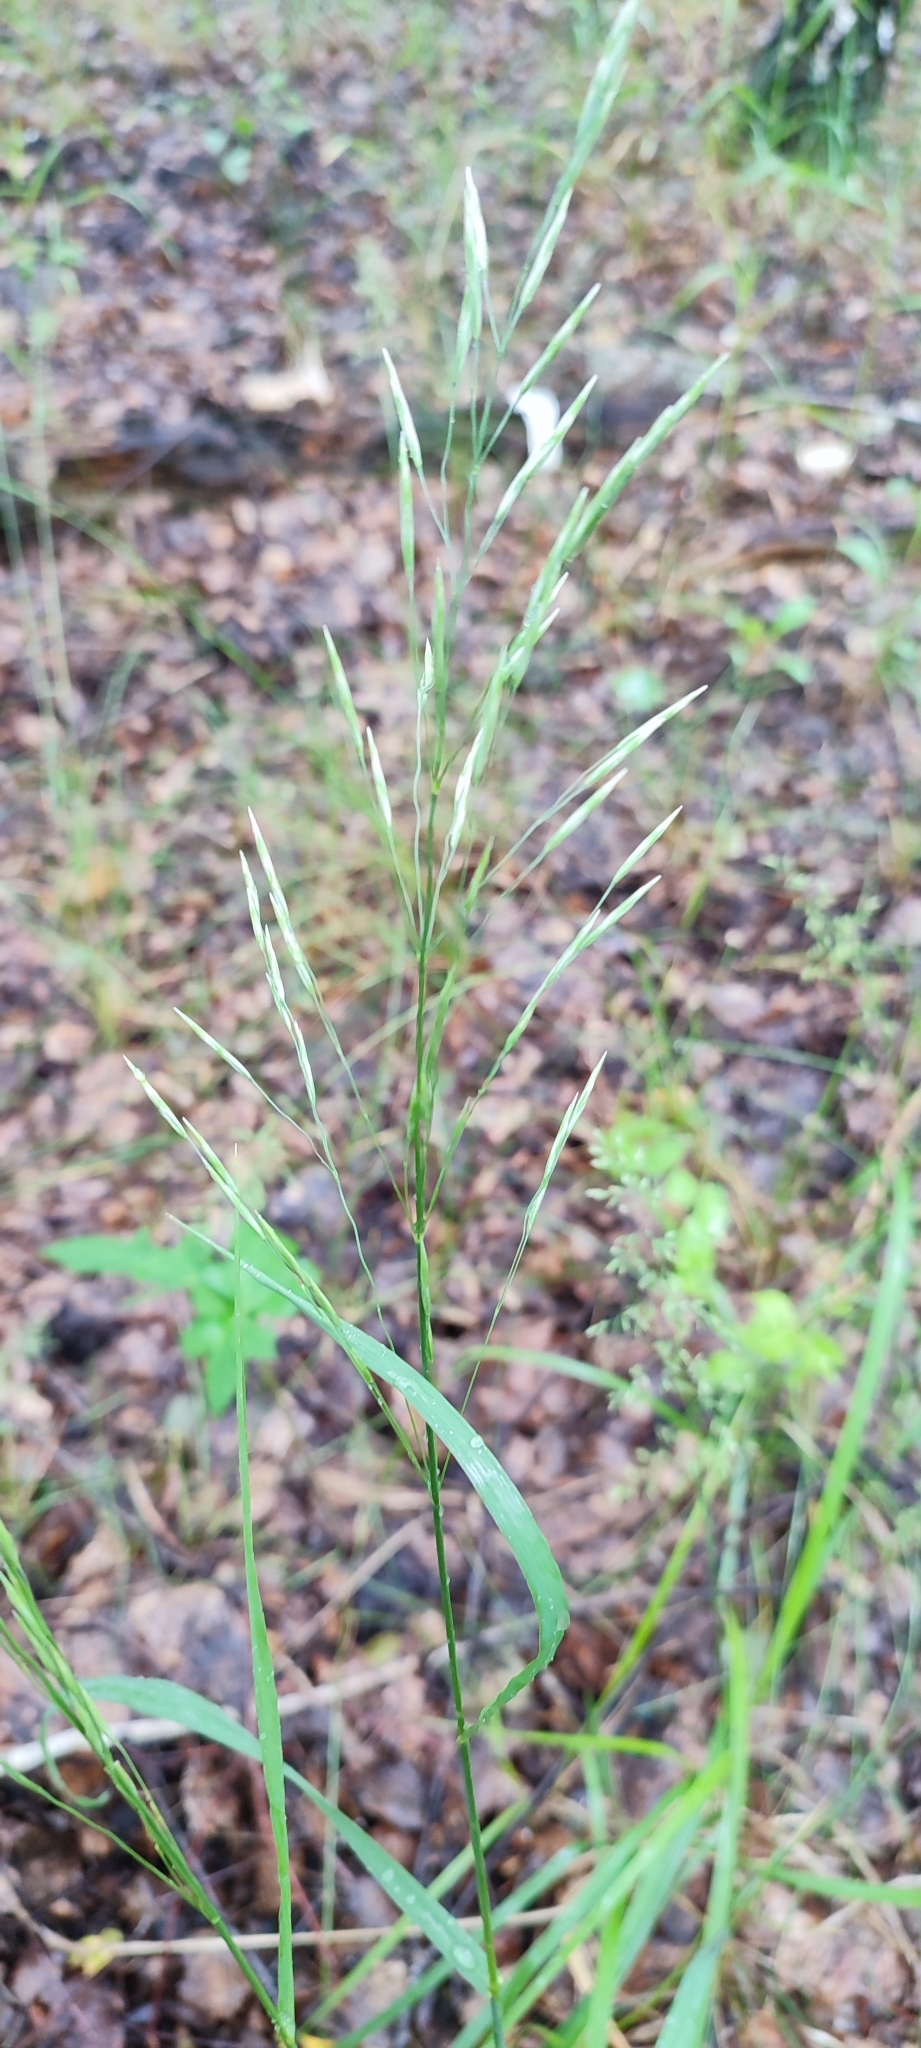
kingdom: Plantae
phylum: Tracheophyta
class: Liliopsida
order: Poales
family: Poaceae
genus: Bromus
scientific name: Bromus inermis
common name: Smooth brome
